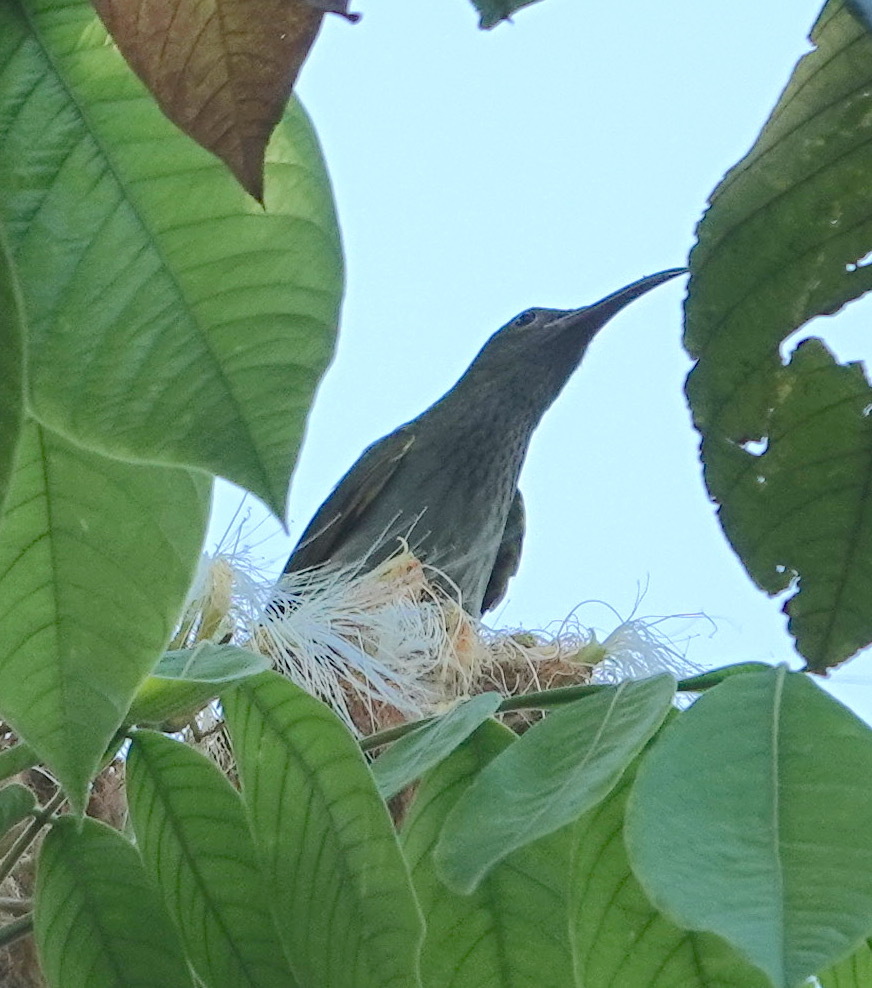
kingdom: Animalia
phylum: Chordata
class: Aves
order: Passeriformes
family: Nectariniidae
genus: Arachnothera
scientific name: Arachnothera modesta
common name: Grey-breasted spiderhunter
